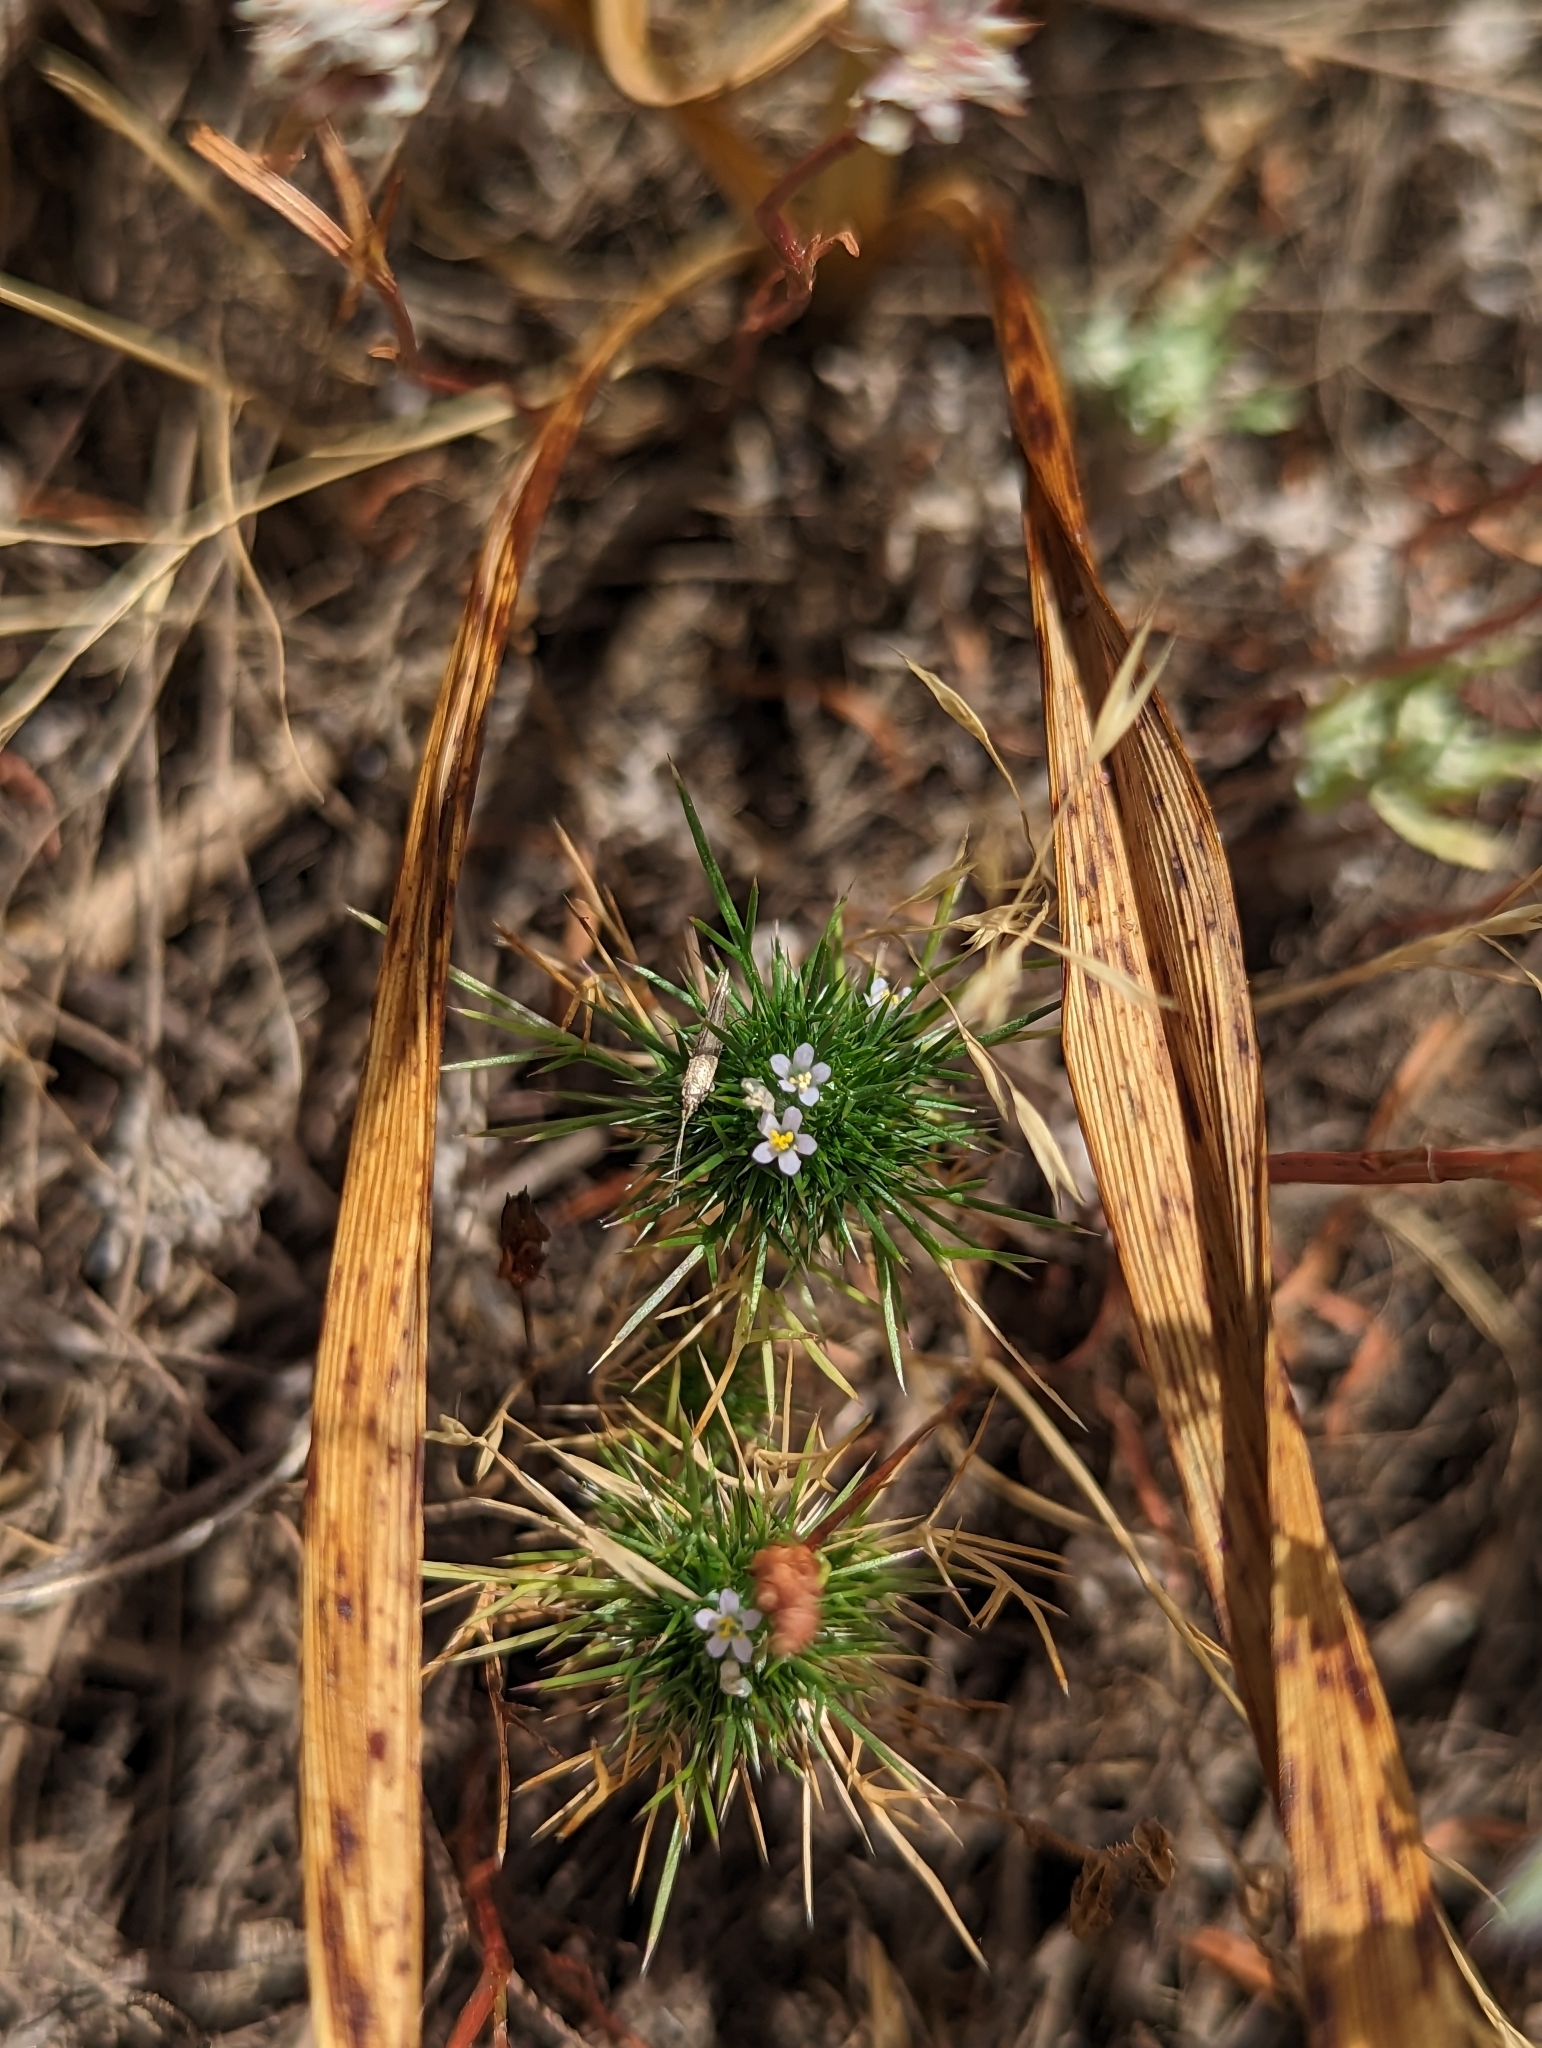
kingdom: Plantae
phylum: Tracheophyta
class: Magnoliopsida
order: Ericales
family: Polemoniaceae
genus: Navarretia
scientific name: Navarretia intertexta
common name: Needle-leaved navarretia
